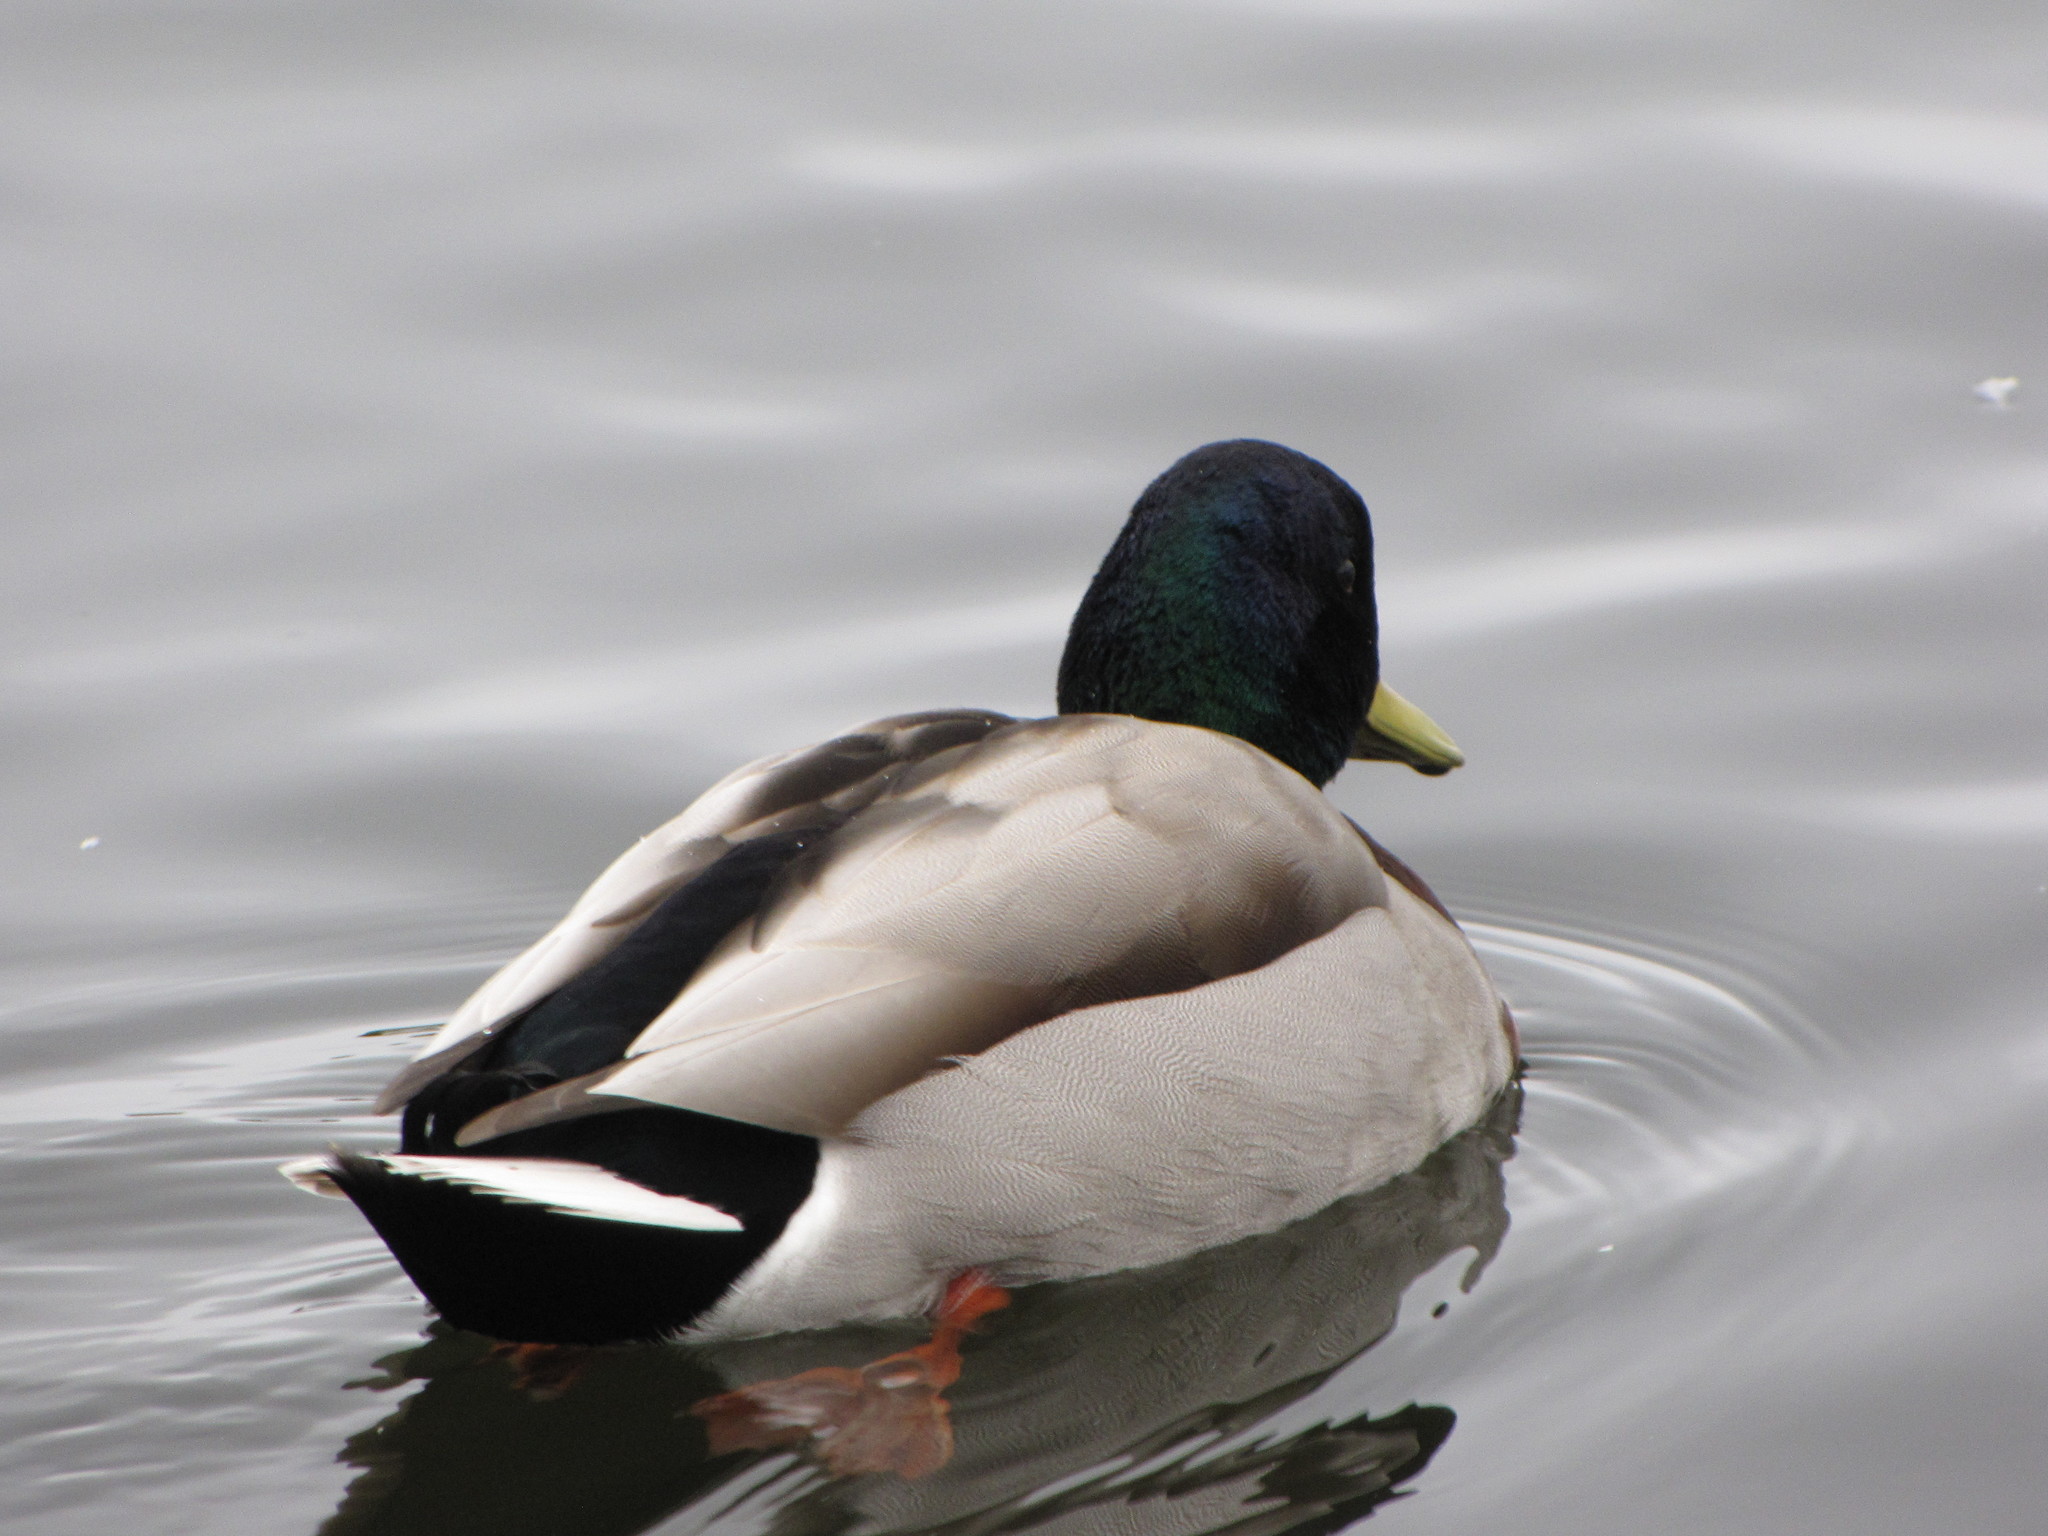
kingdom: Animalia
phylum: Chordata
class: Aves
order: Anseriformes
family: Anatidae
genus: Anas
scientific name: Anas platyrhynchos
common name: Mallard
